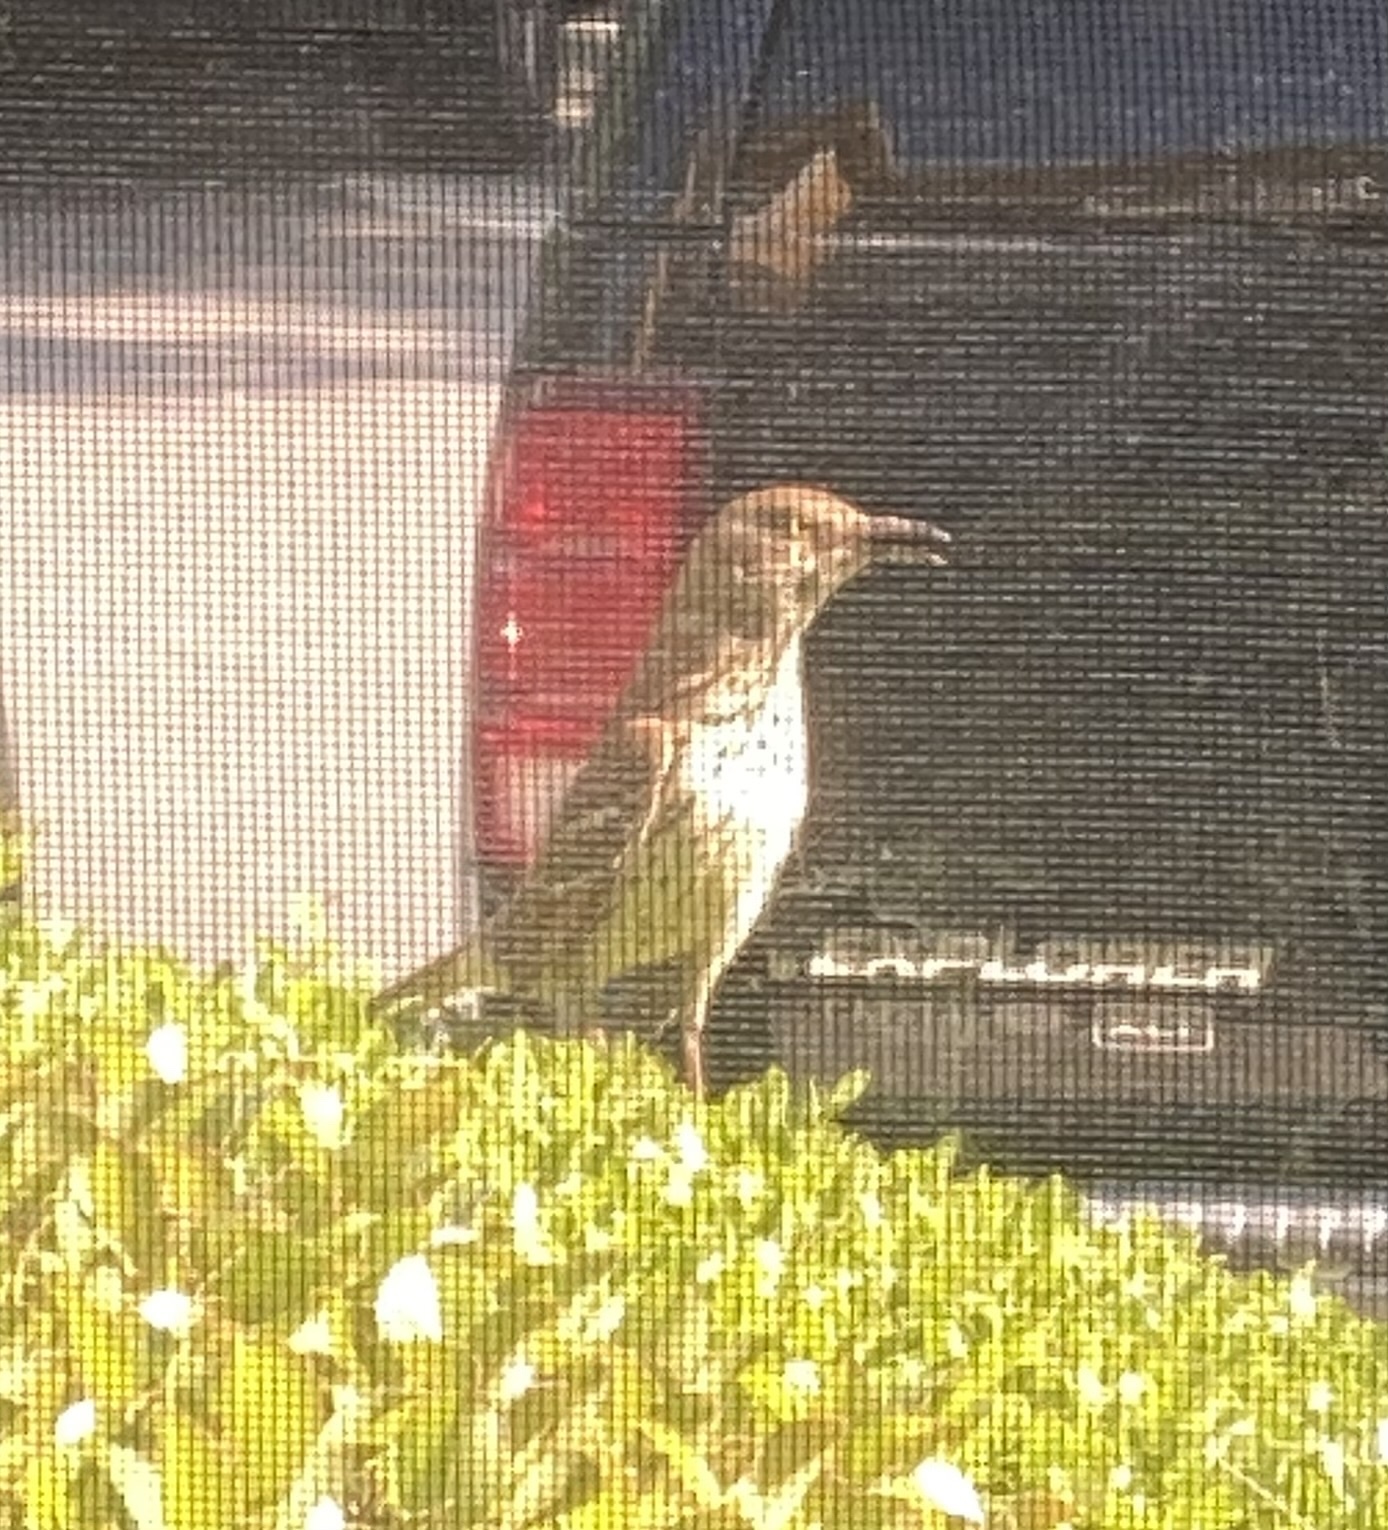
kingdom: Animalia
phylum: Chordata
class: Aves
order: Passeriformes
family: Mimidae
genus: Toxostoma
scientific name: Toxostoma rufum
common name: Brown thrasher
